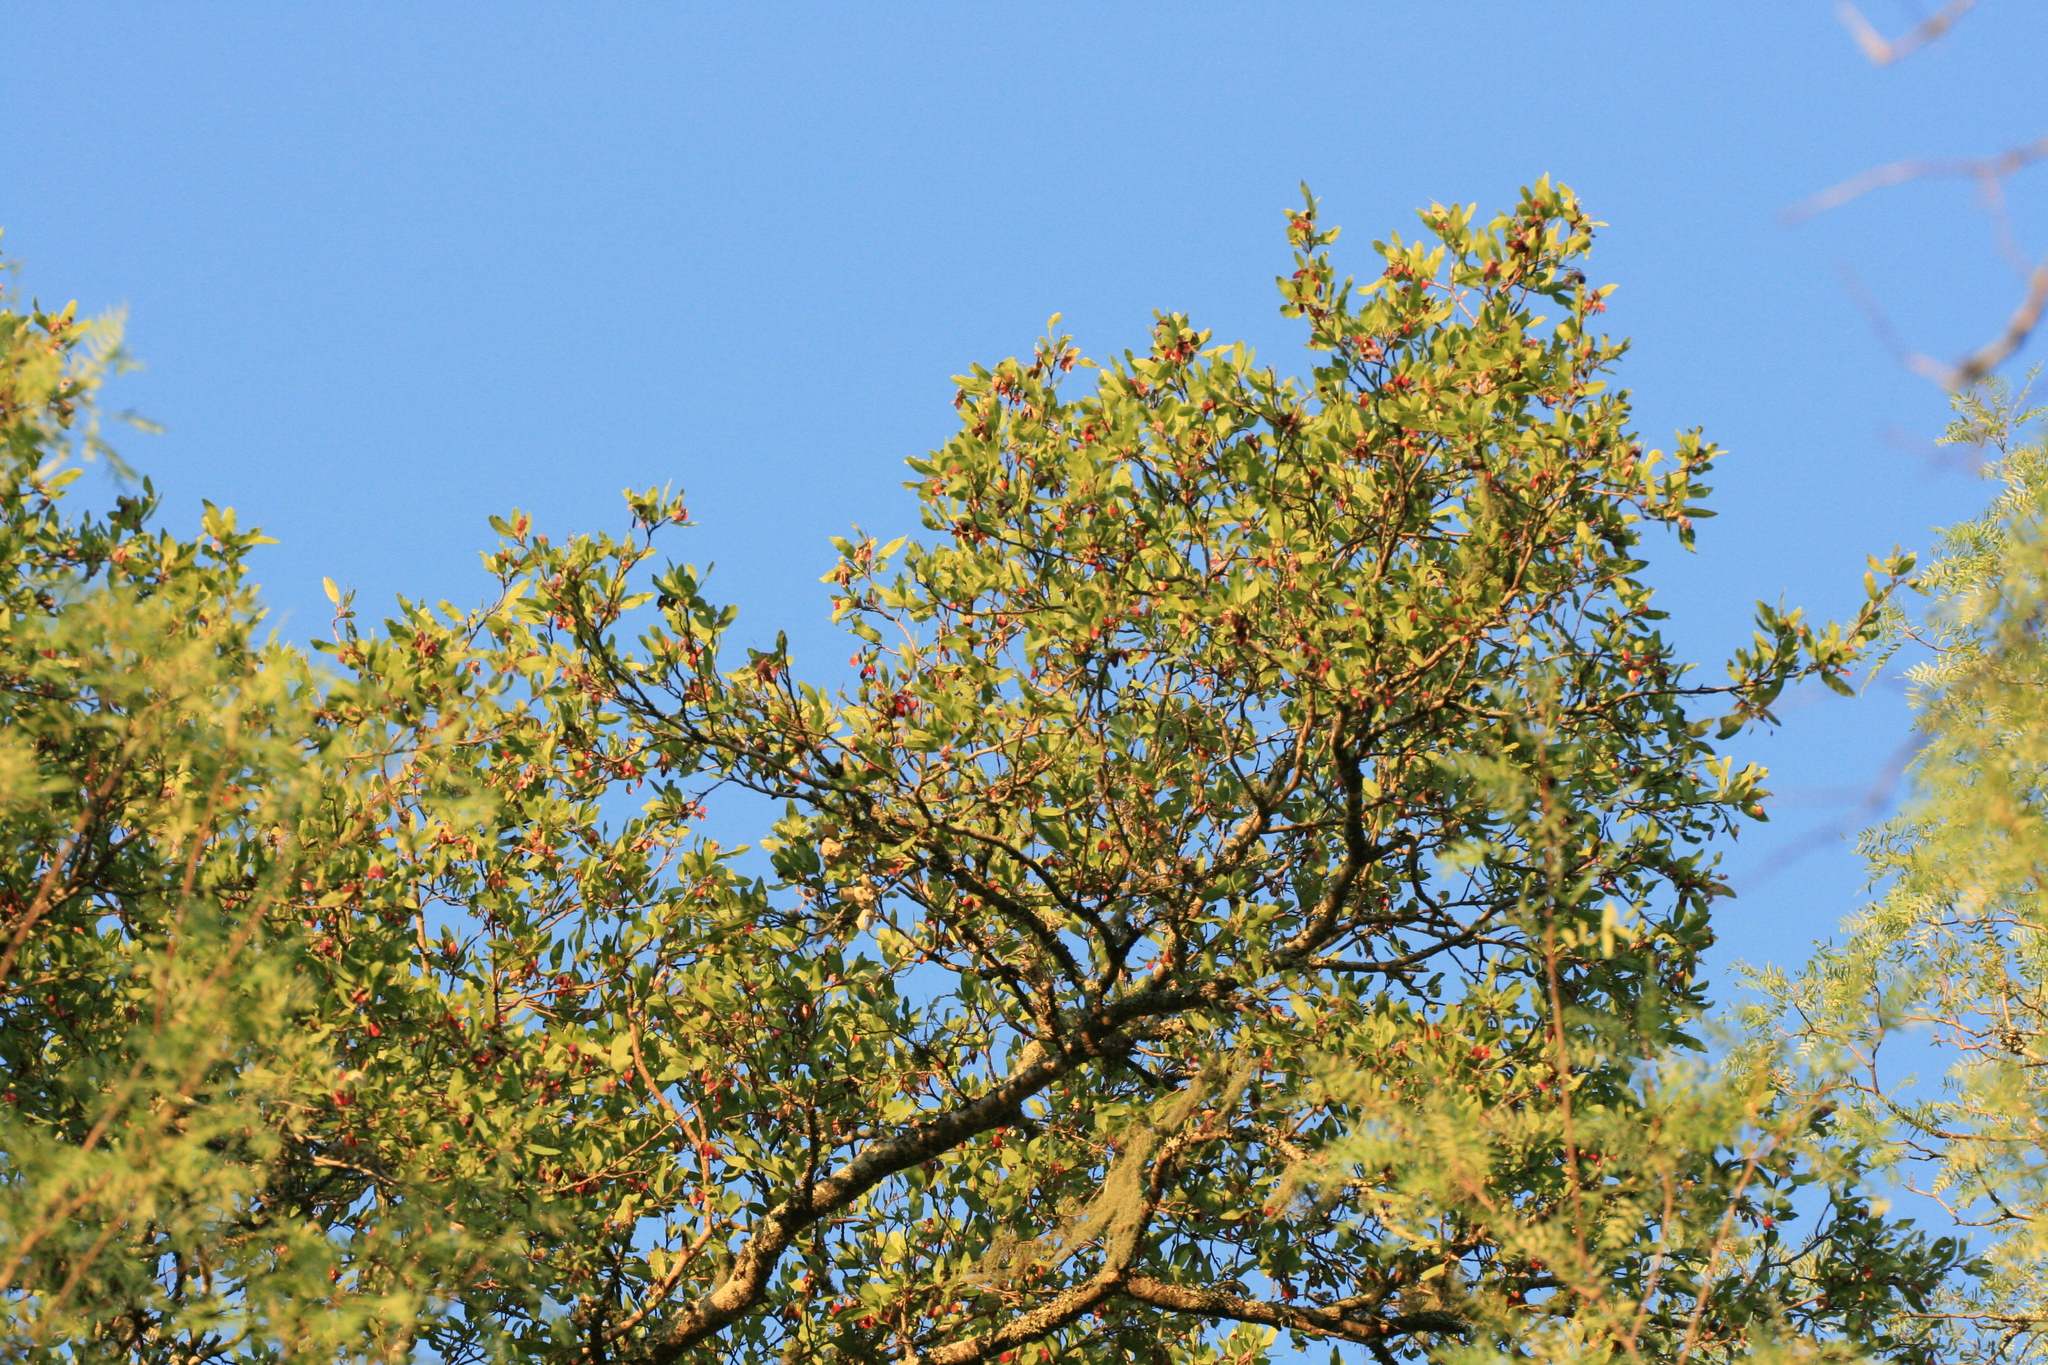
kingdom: Plantae
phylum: Tracheophyta
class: Magnoliopsida
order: Sapindales
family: Anacardiaceae
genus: Schinopsis
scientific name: Schinopsis balansae
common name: Red quebracho
